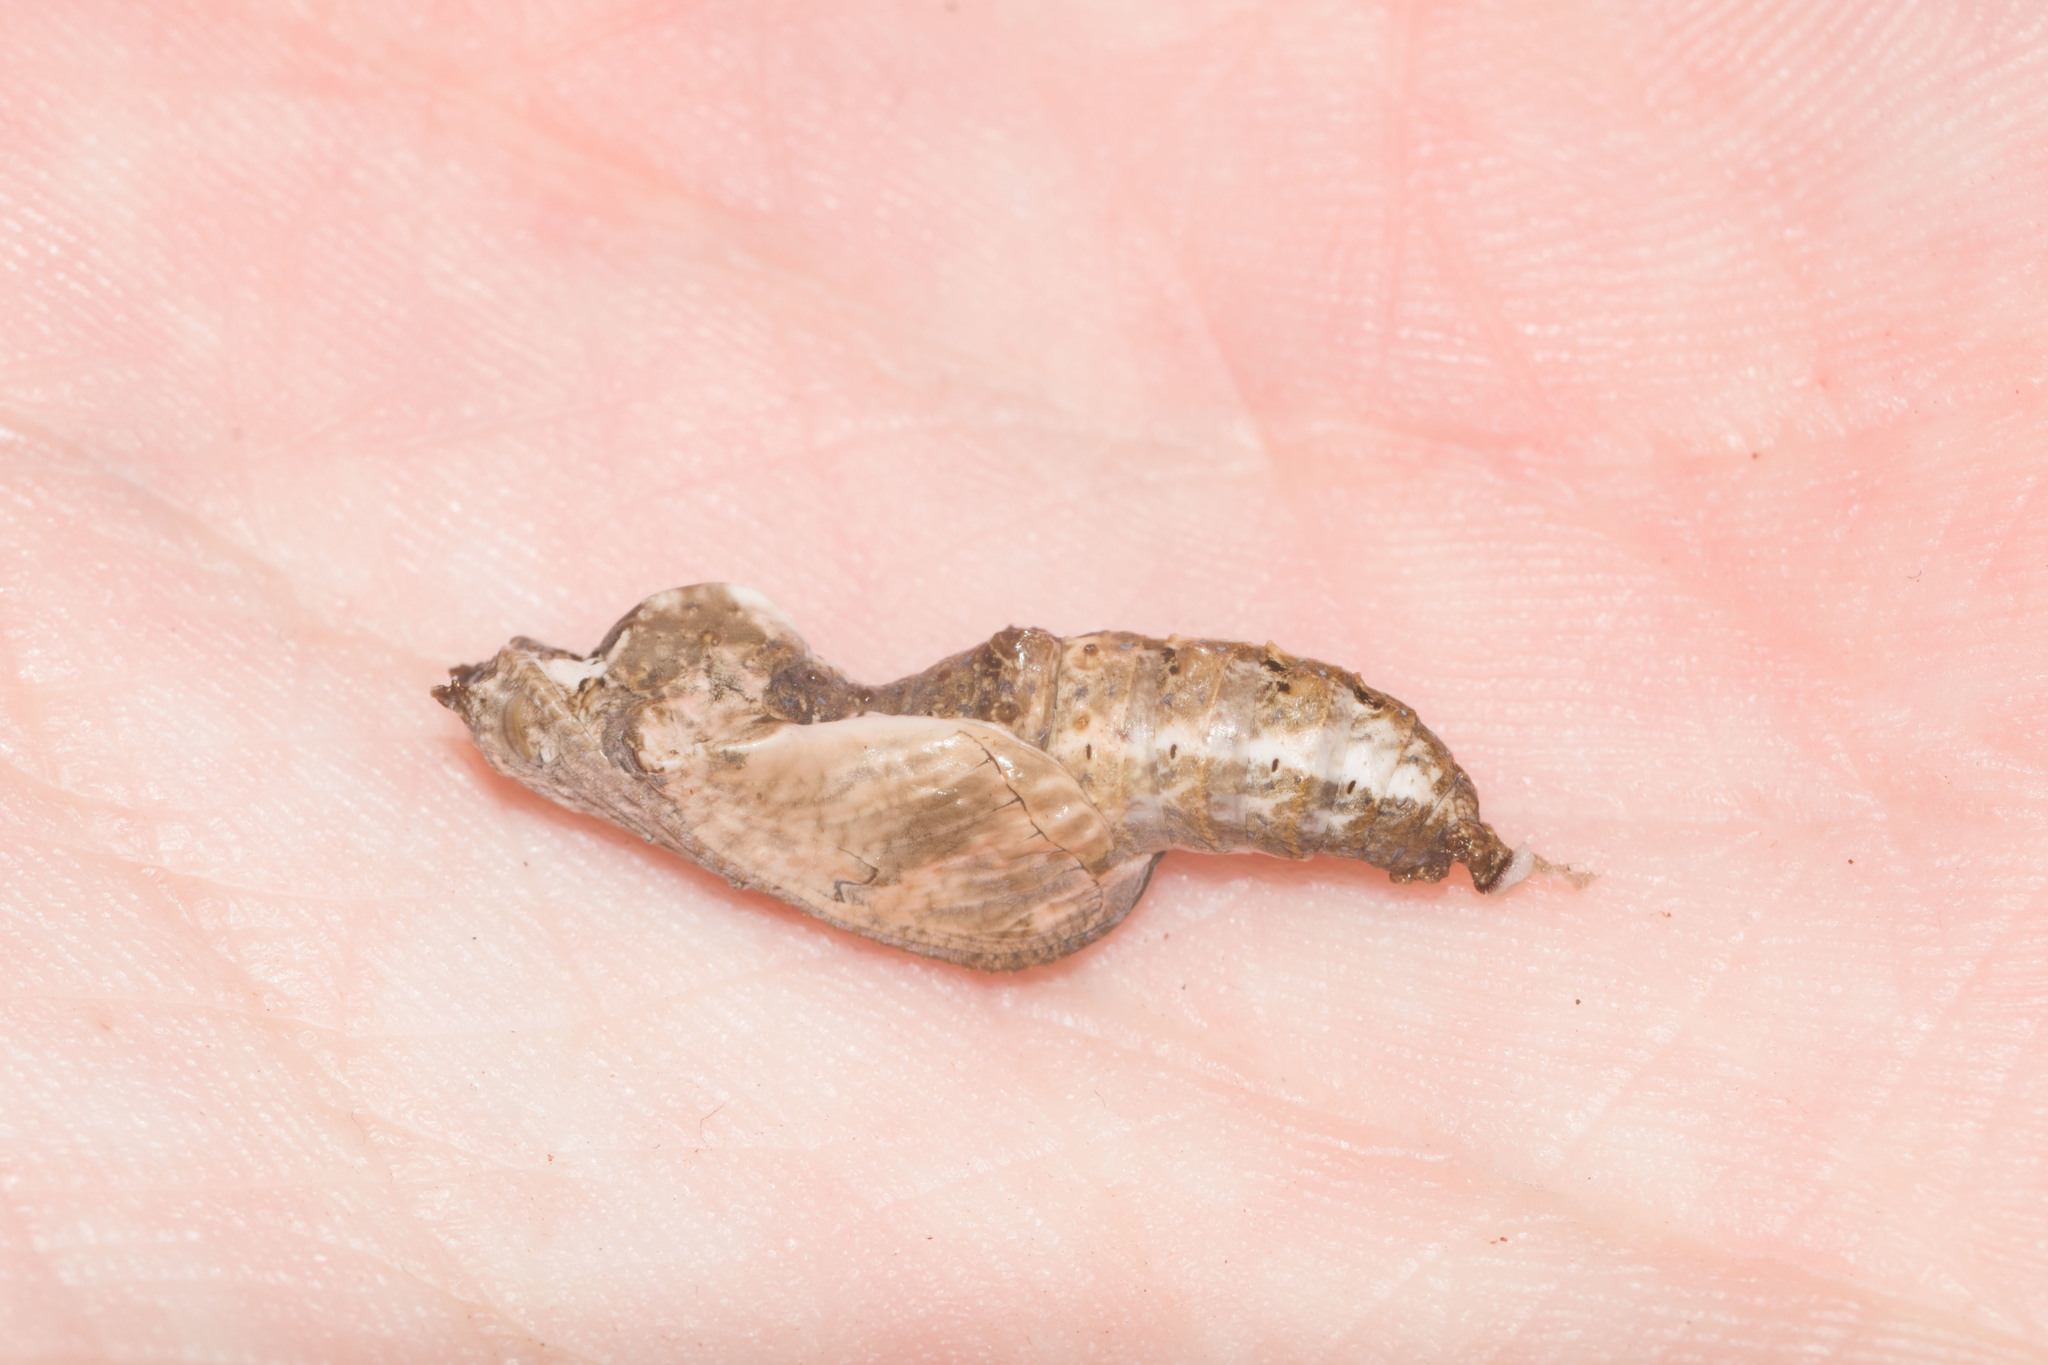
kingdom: Animalia
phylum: Arthropoda
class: Insecta
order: Lepidoptera
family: Nymphalidae
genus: Dione
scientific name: Dione vanillae
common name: Gulf fritillary
